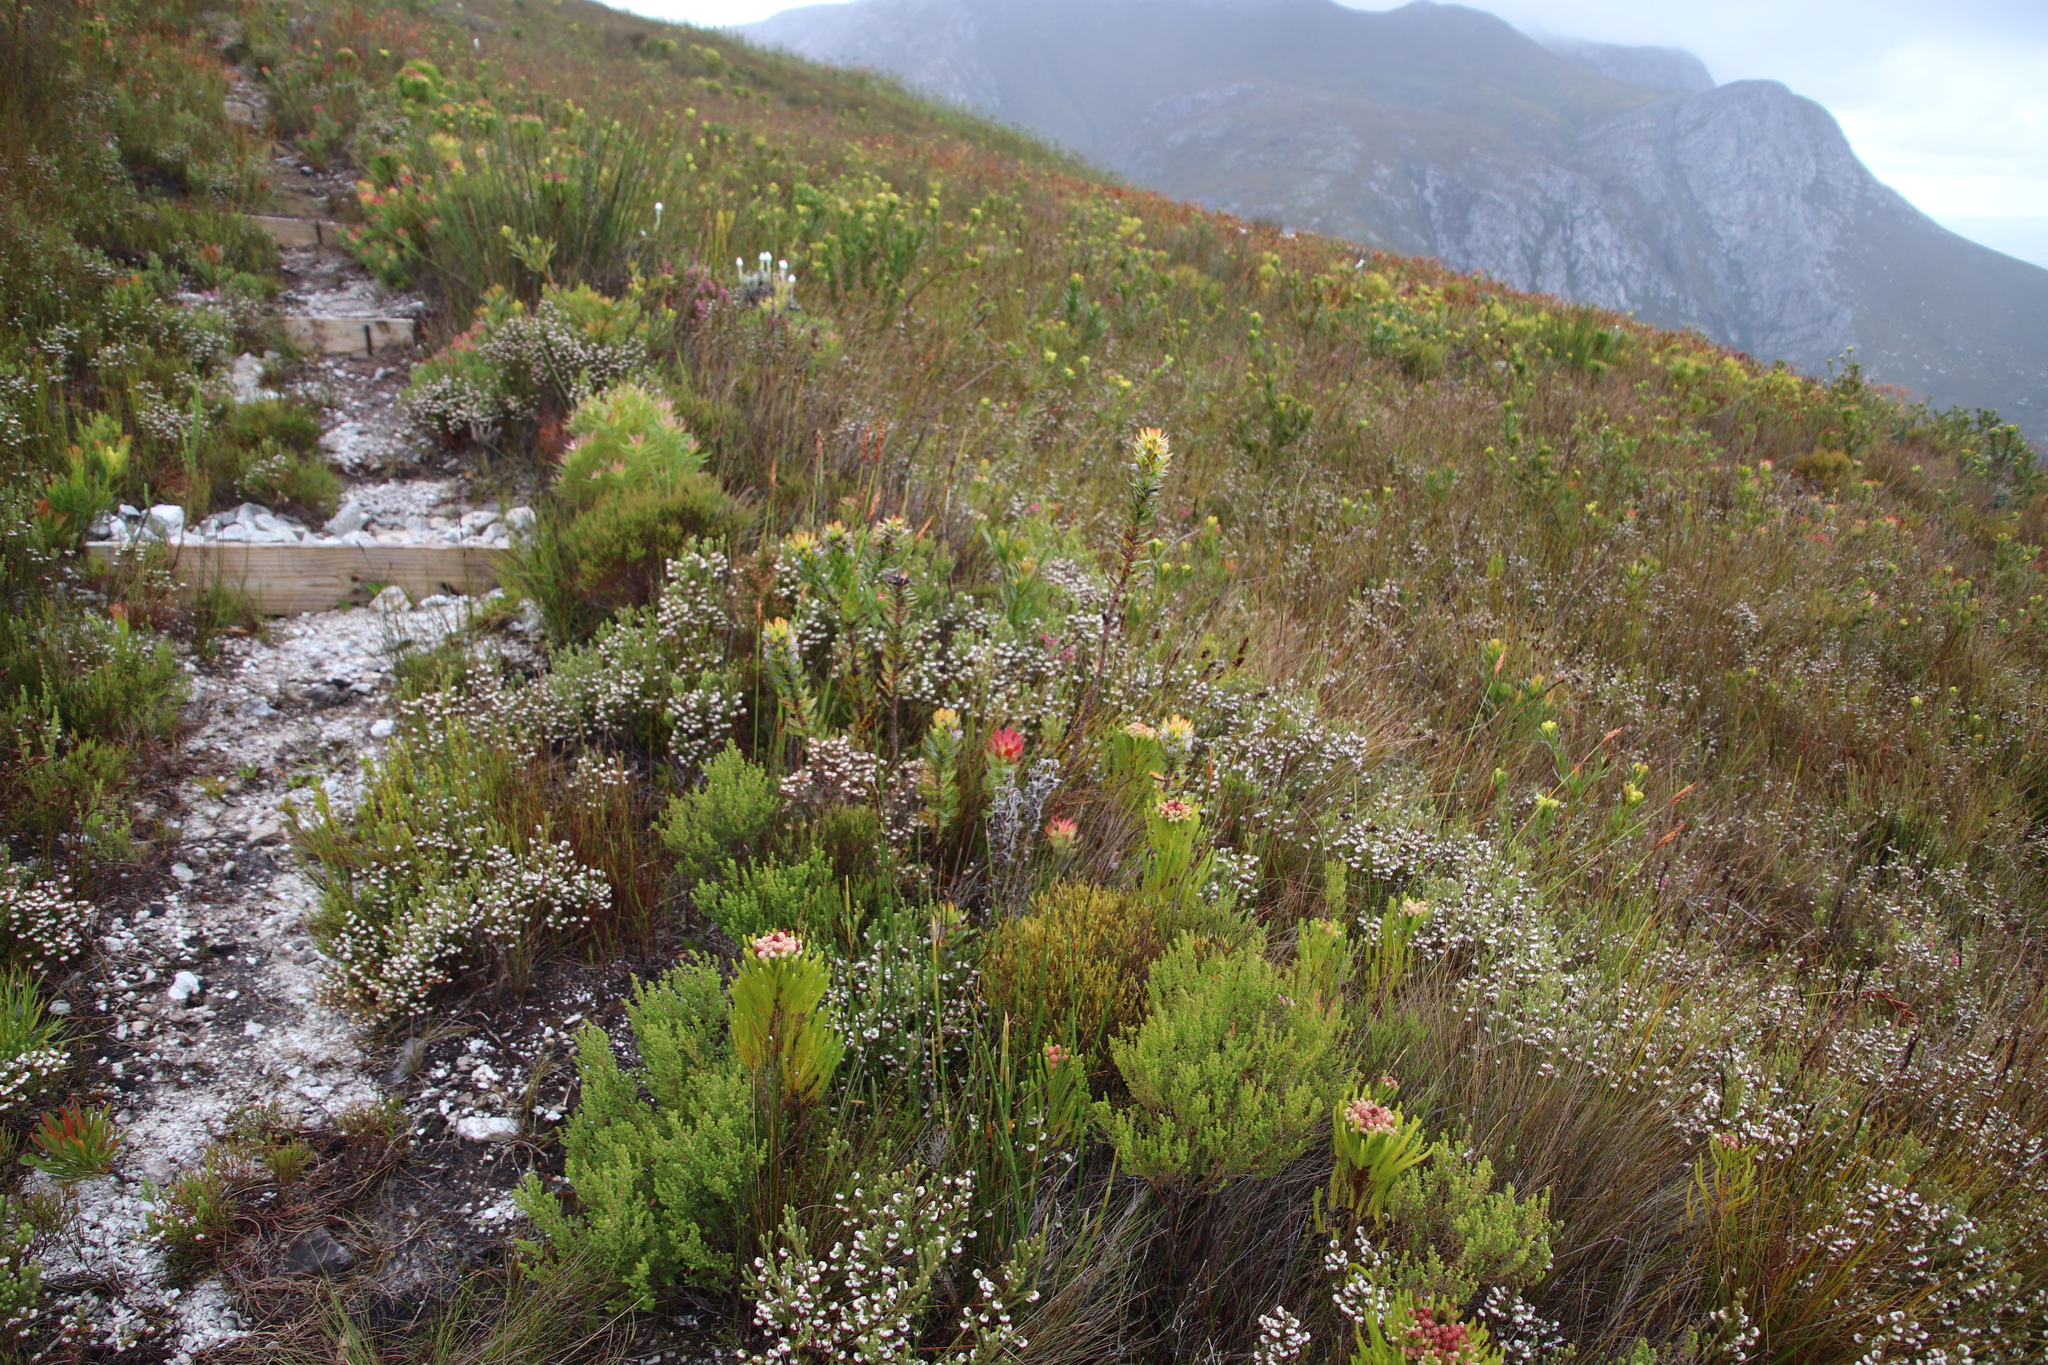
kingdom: Plantae
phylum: Tracheophyta
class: Magnoliopsida
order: Ericales
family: Ericaceae
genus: Erica
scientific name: Erica cumuliflora
